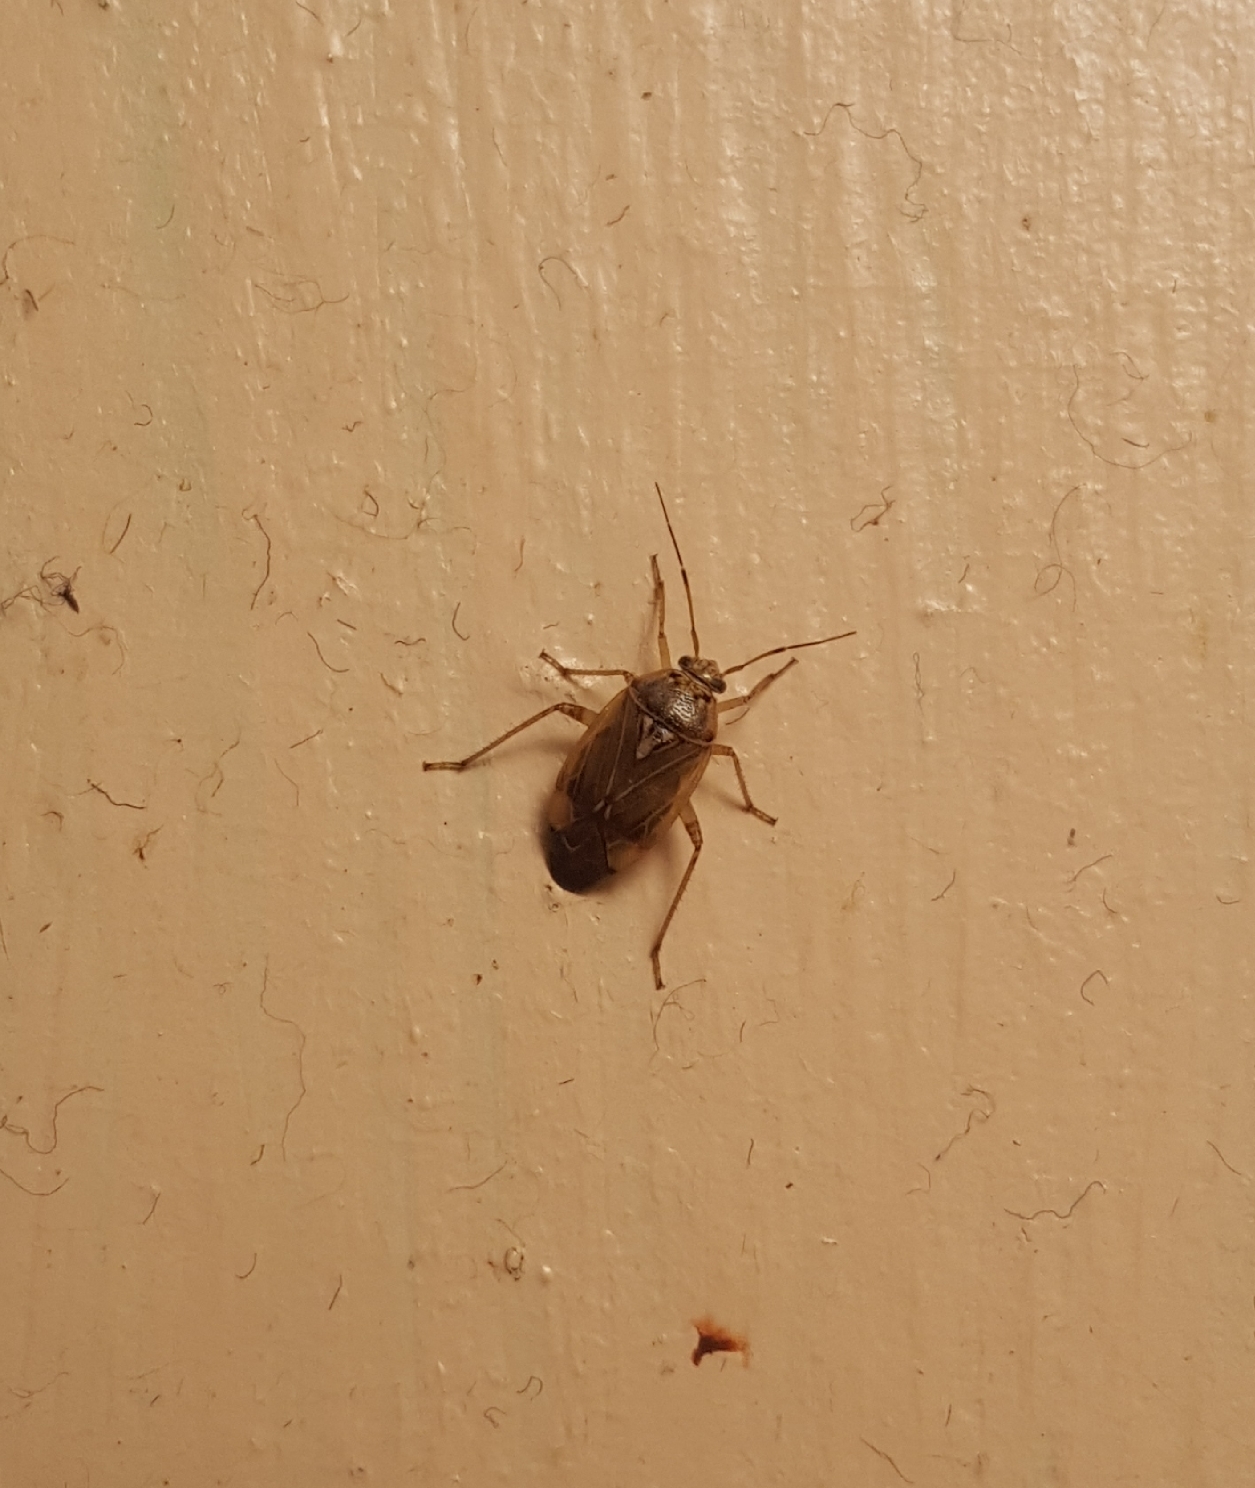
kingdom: Animalia
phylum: Arthropoda
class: Insecta
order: Hemiptera
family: Miridae
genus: Lygus
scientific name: Lygus lineolaris
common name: North american tarnished plant bug
